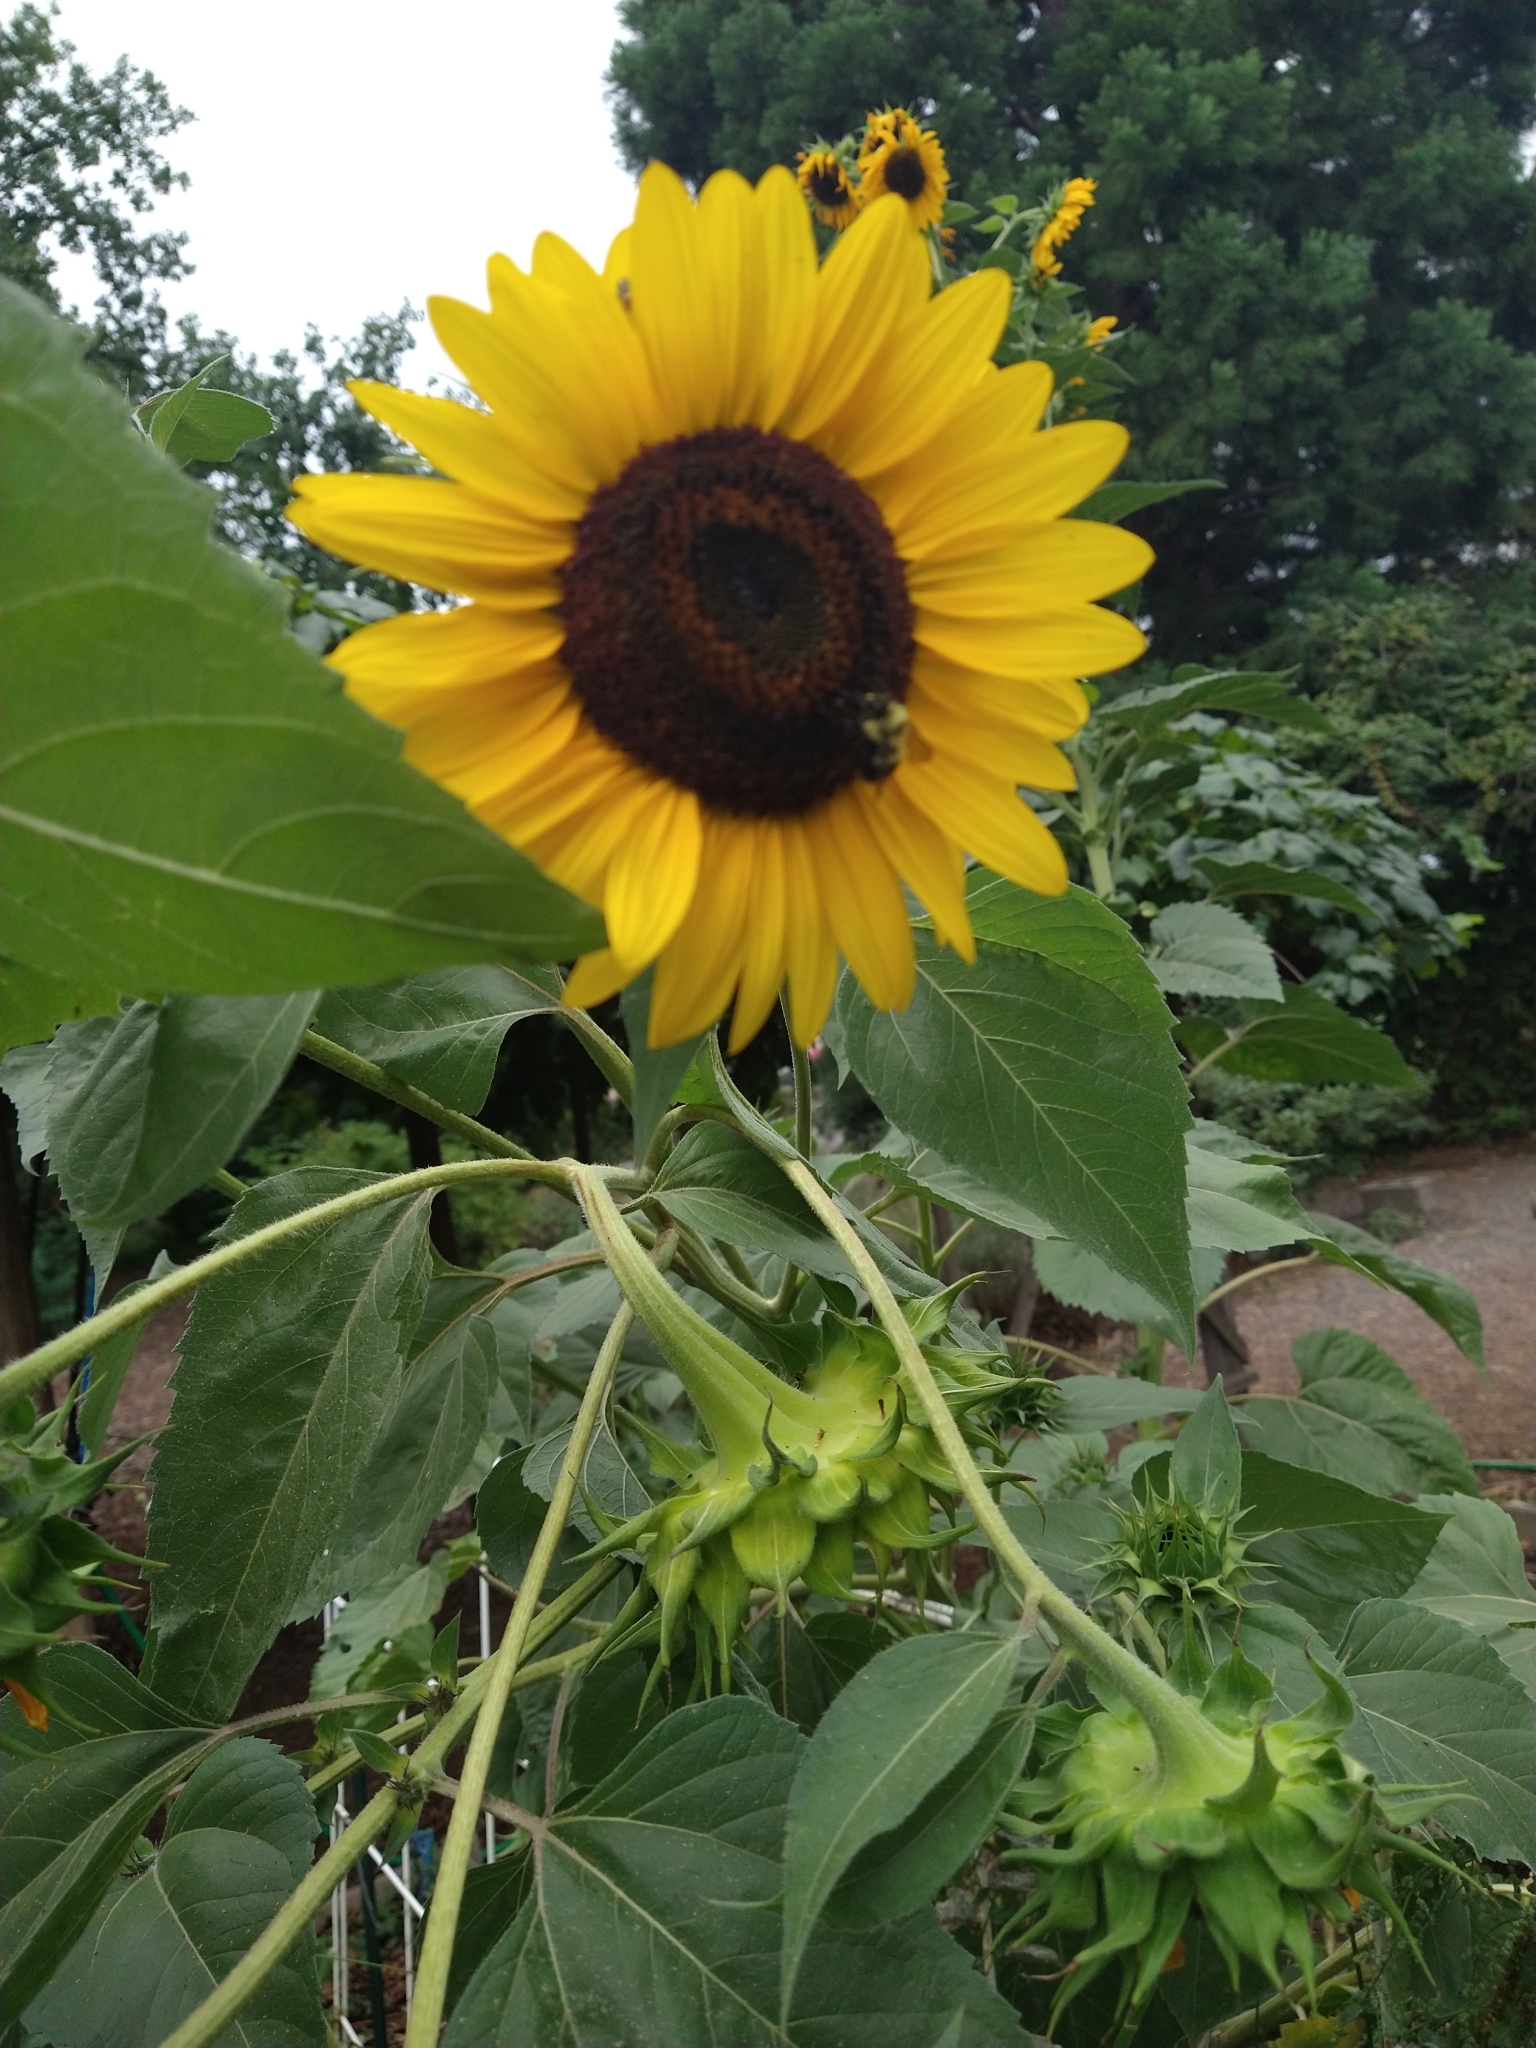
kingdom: Animalia
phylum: Arthropoda
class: Insecta
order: Hymenoptera
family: Apidae
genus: Bombus
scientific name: Bombus vagans
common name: Half-black bumble bee
